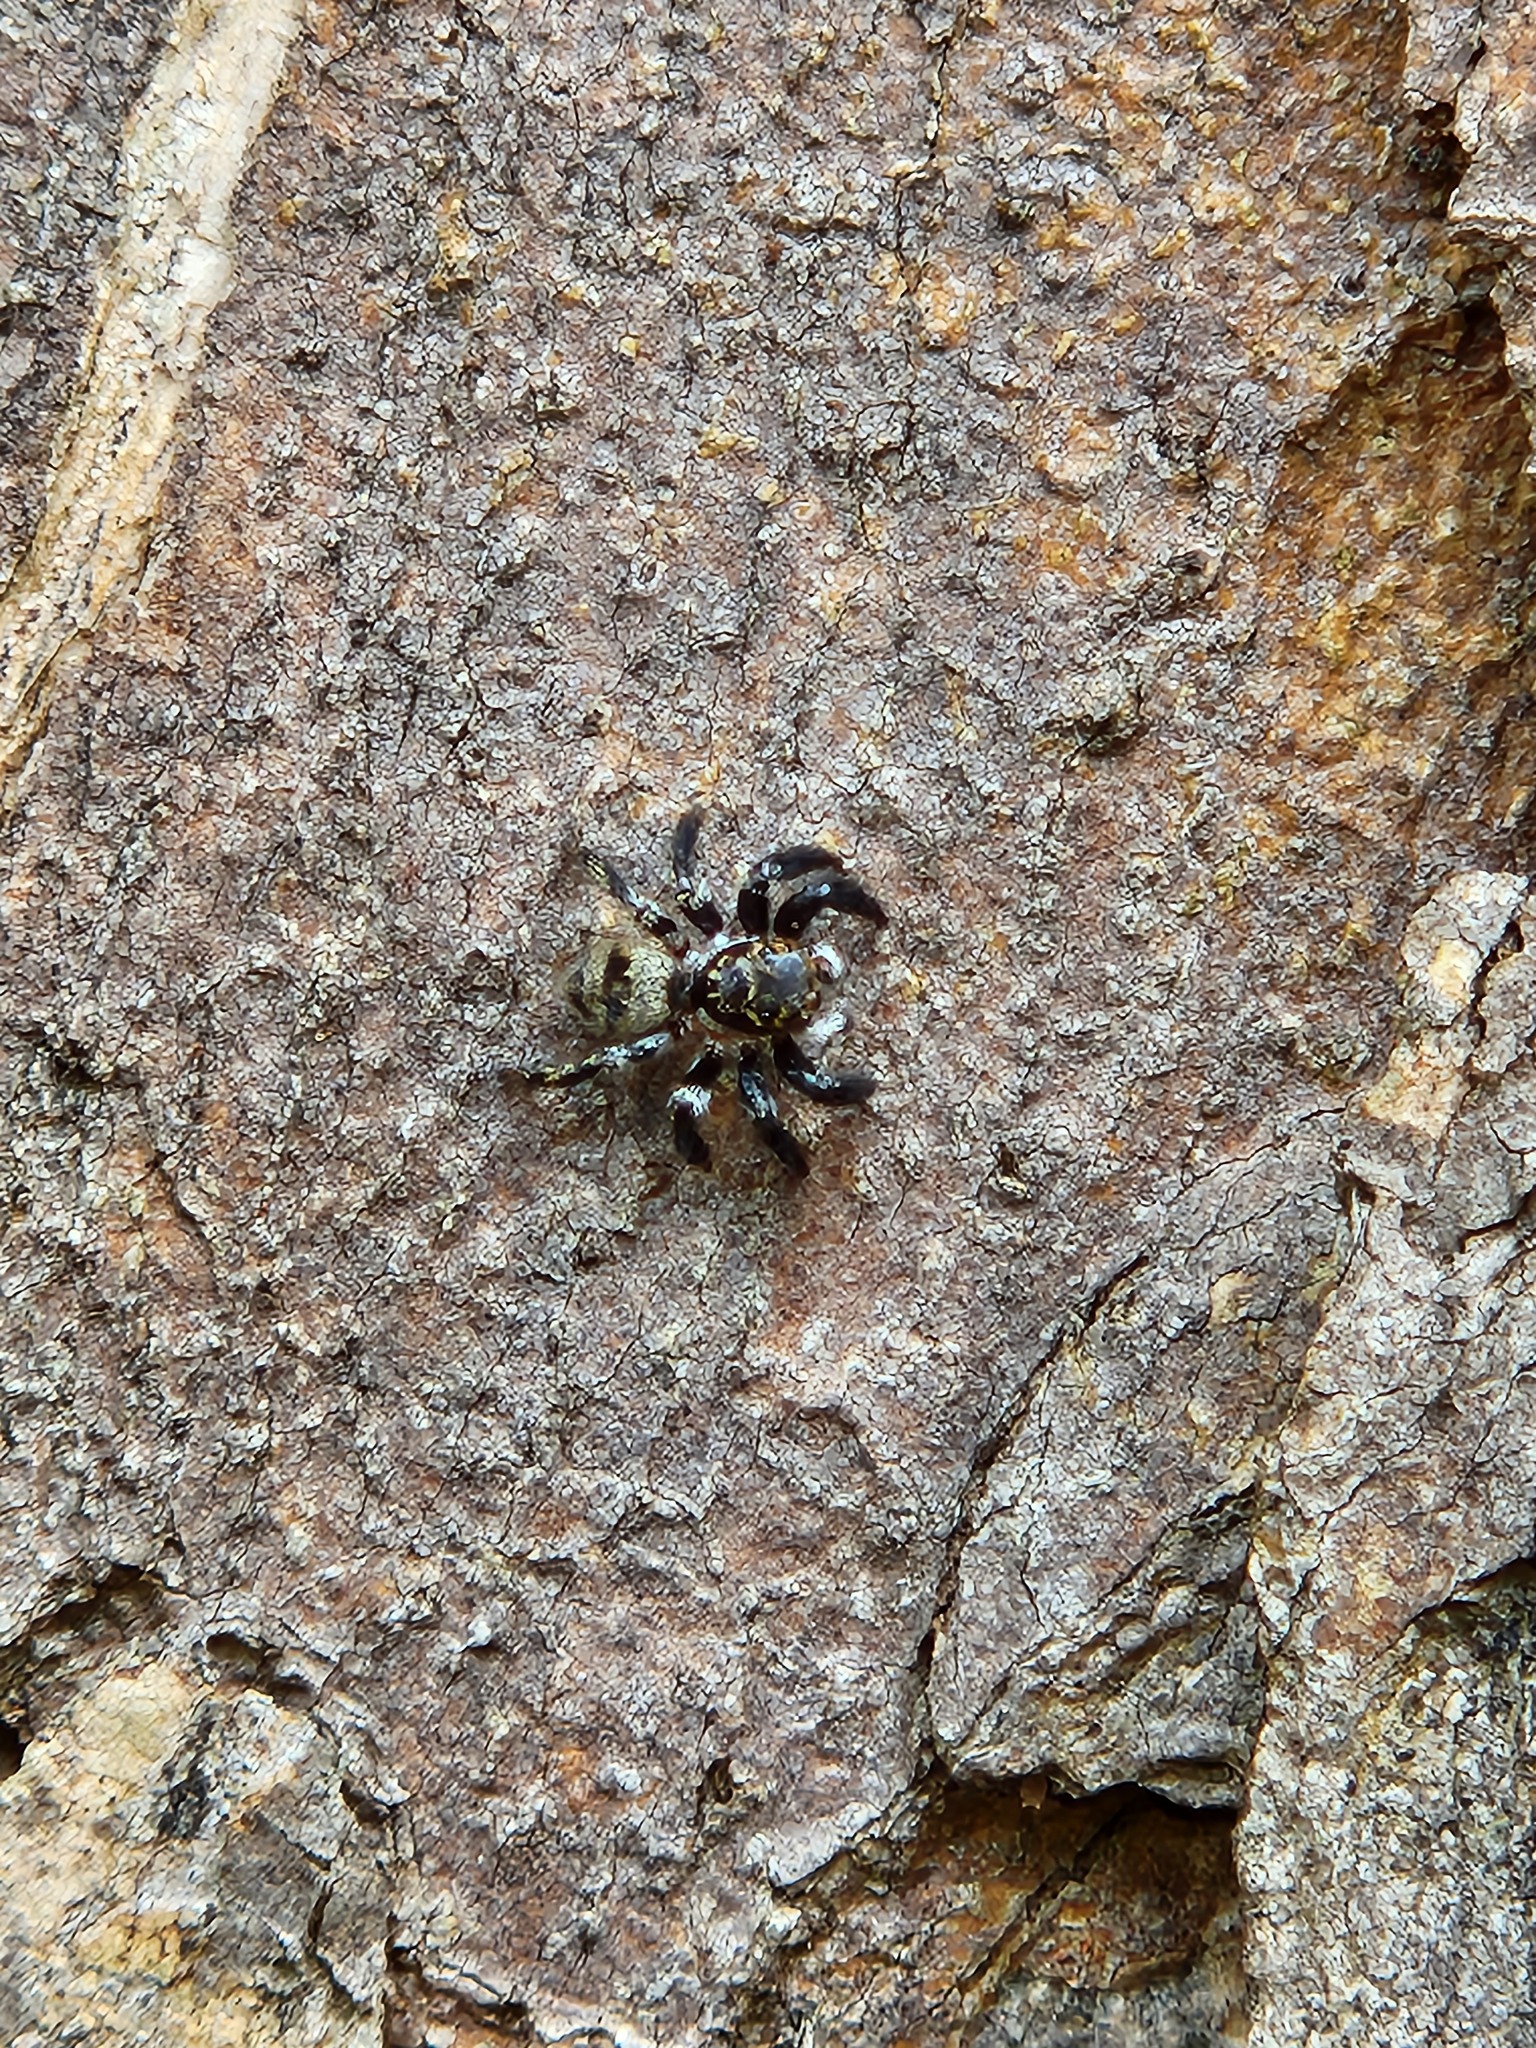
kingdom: Animalia
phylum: Arthropoda
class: Arachnida
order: Araneae
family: Salticidae
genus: Corythalia
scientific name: Corythalia conferta
